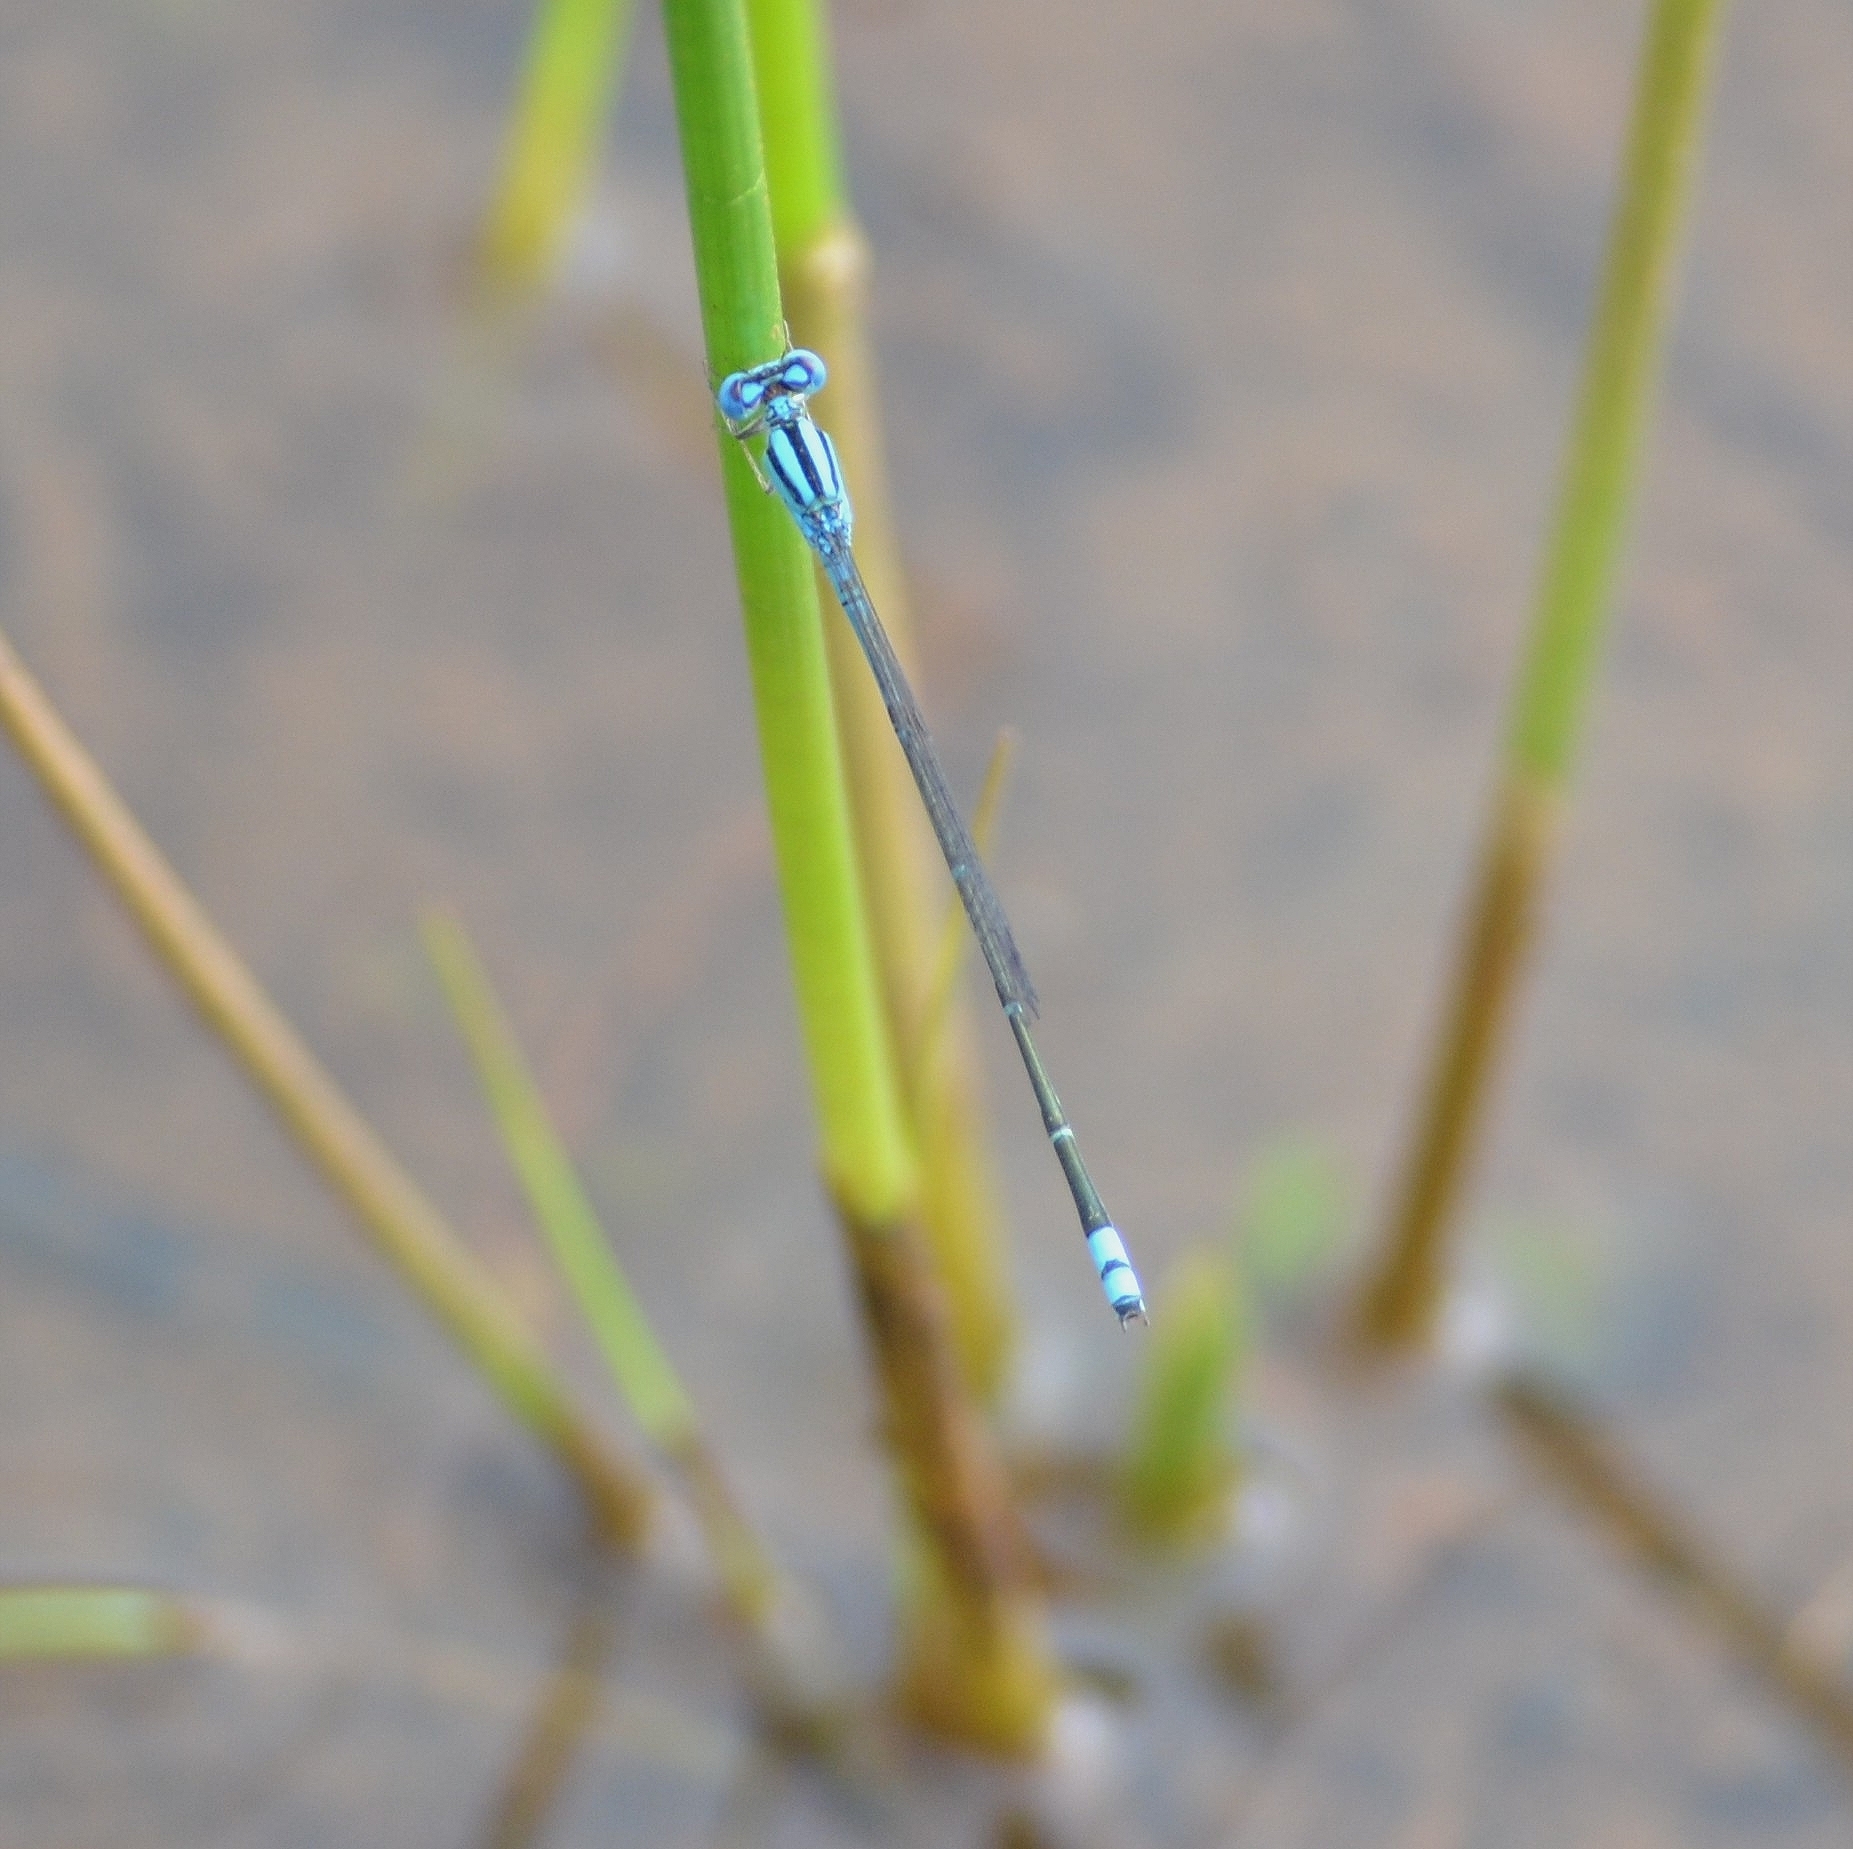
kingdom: Animalia
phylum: Arthropoda
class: Insecta
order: Odonata
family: Coenagrionidae
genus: Pseudagrion
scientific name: Pseudagrion microcephalum
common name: Blue riverdamsel
